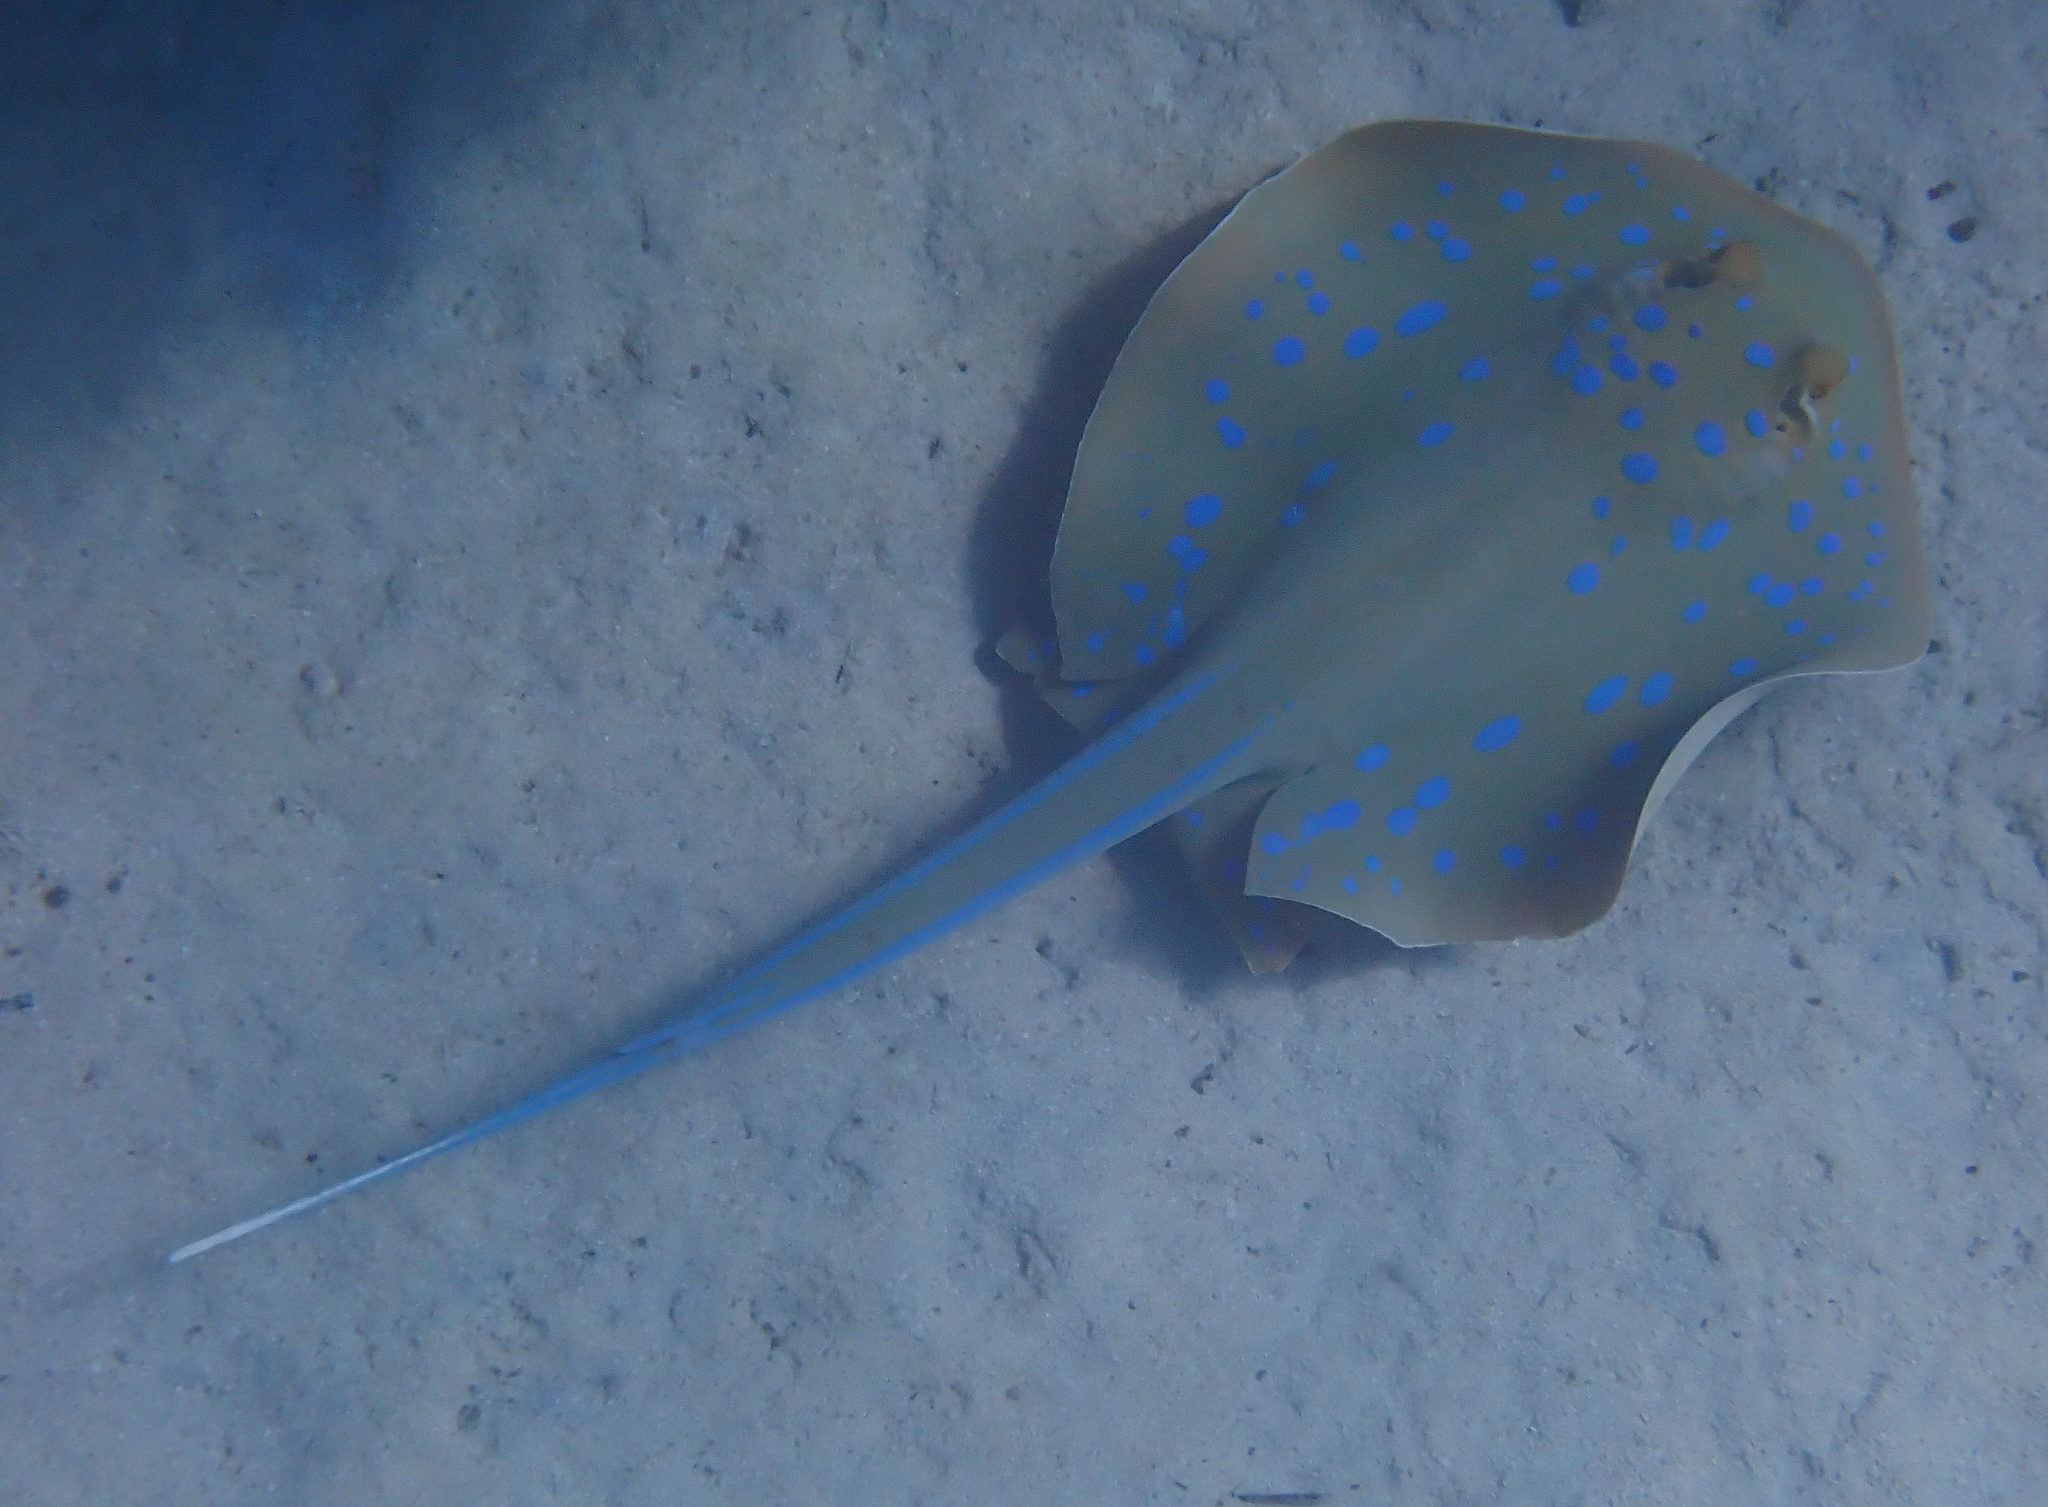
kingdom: Animalia
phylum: Chordata
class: Elasmobranchii
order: Myliobatiformes
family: Dasyatidae
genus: Taeniura
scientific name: Taeniura lymma
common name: Bluespotted ribbontail ray
